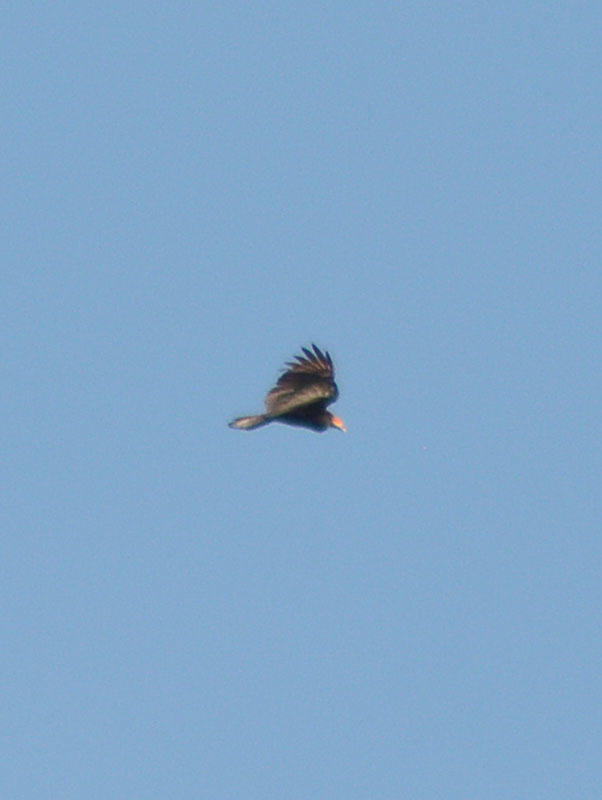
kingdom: Animalia
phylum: Chordata
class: Aves
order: Accipitriformes
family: Cathartidae
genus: Cathartes
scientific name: Cathartes burrovianus
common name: Lesser yellow-headed vulture
